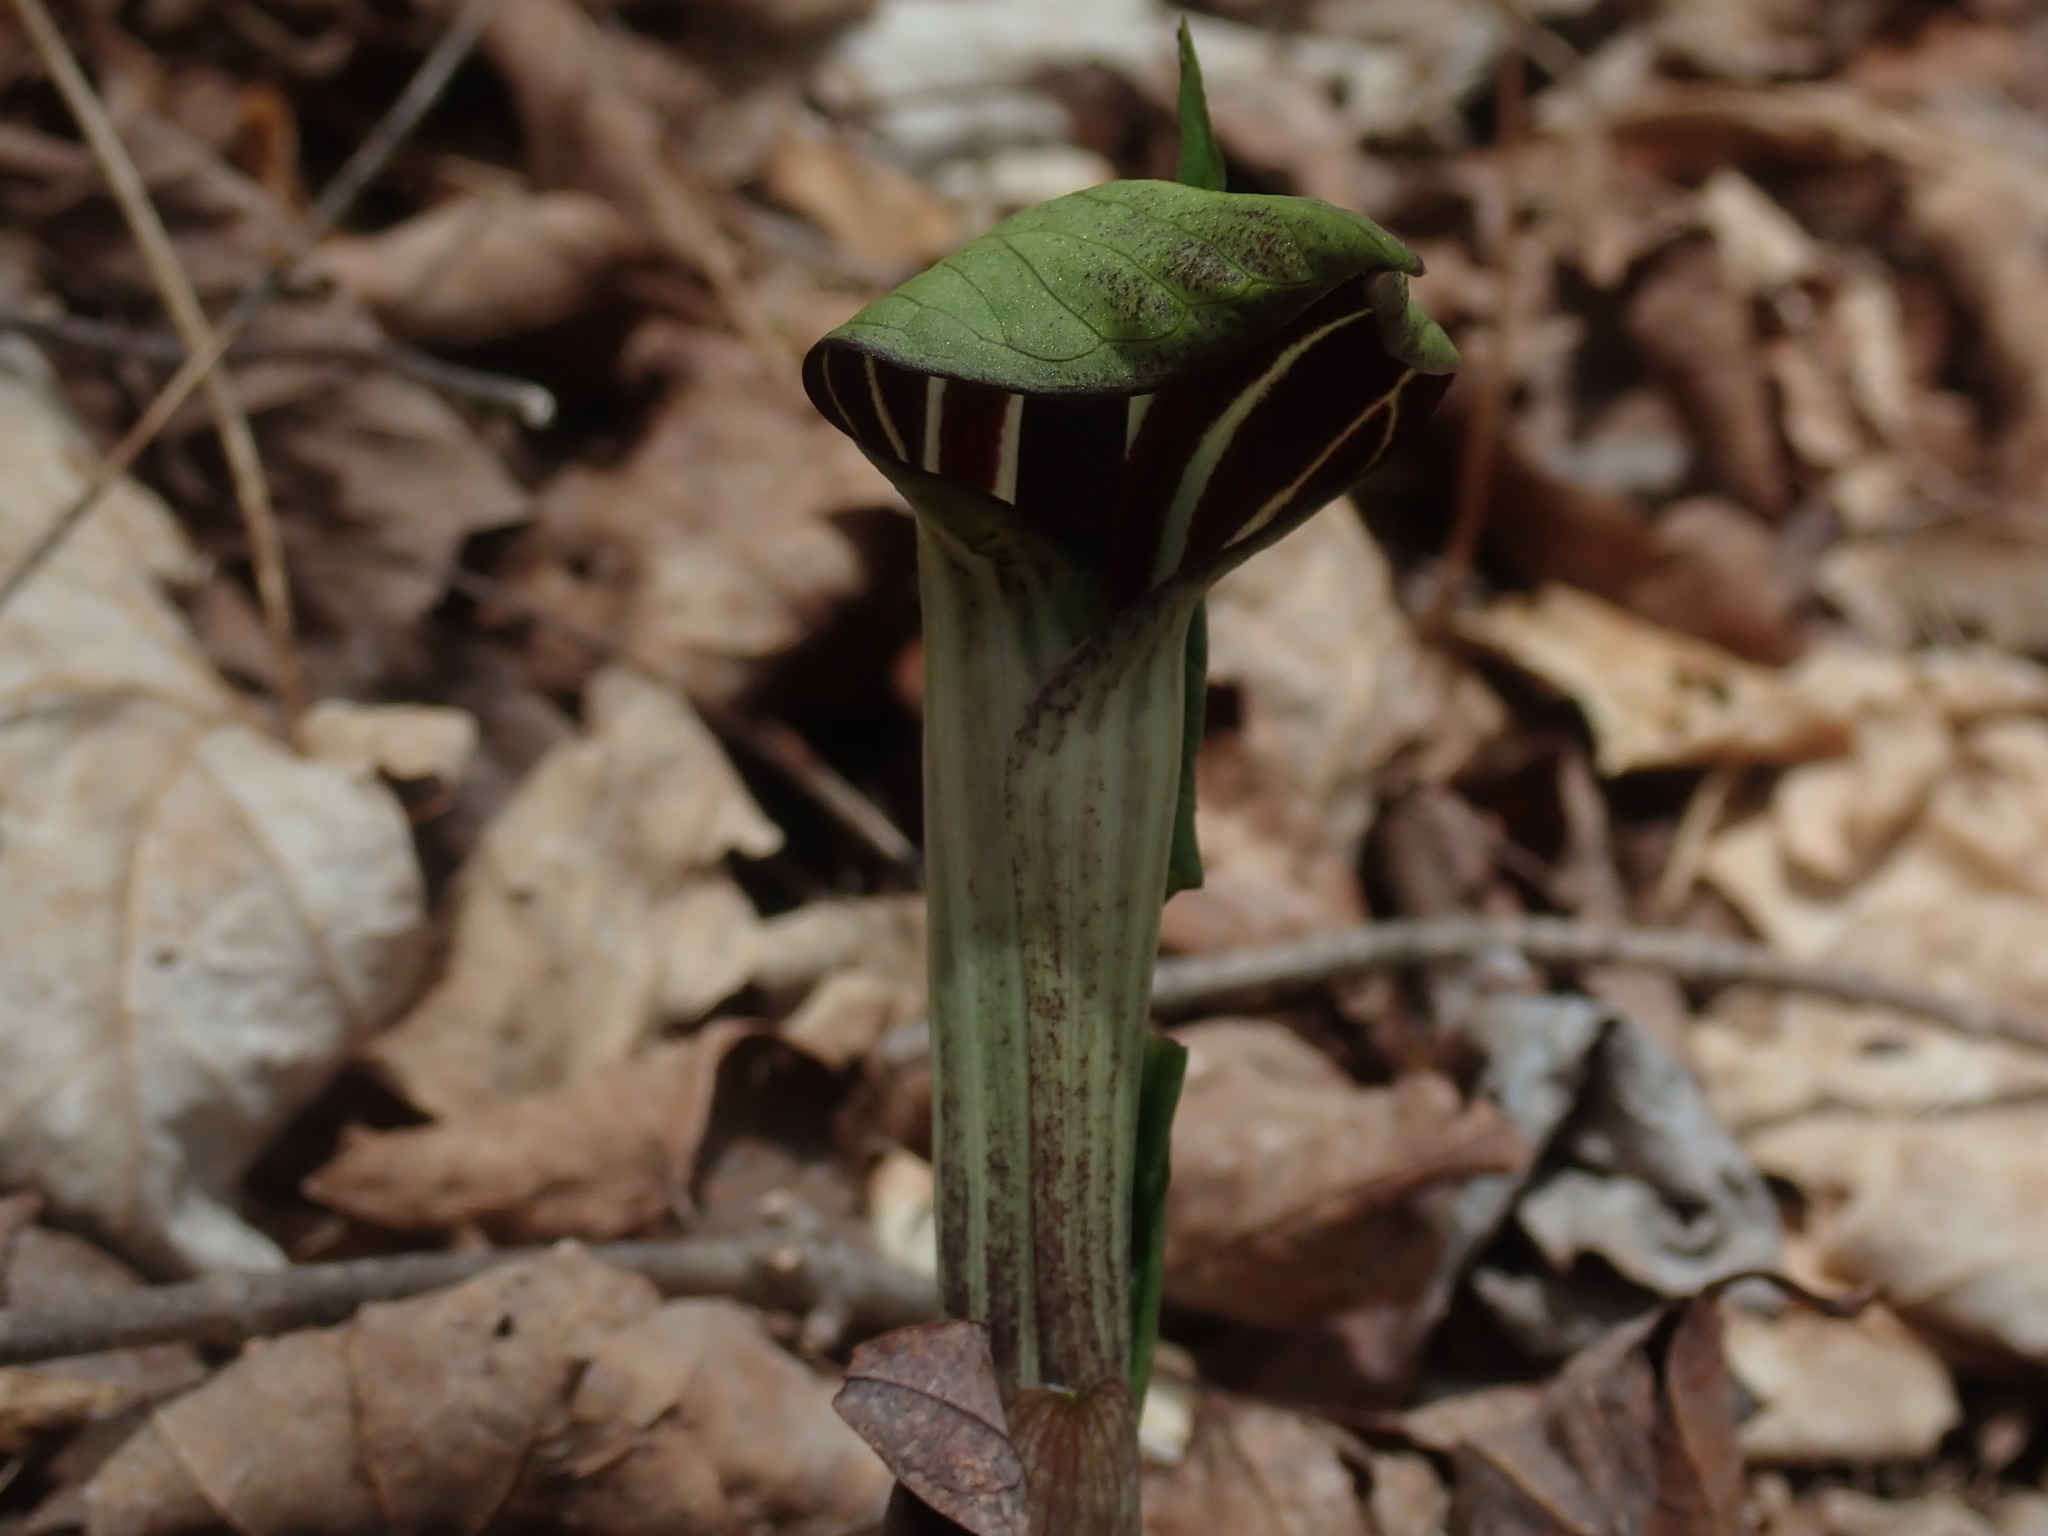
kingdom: Plantae
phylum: Tracheophyta
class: Liliopsida
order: Alismatales
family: Araceae
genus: Arisaema
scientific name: Arisaema triphyllum
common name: Jack-in-the-pulpit
